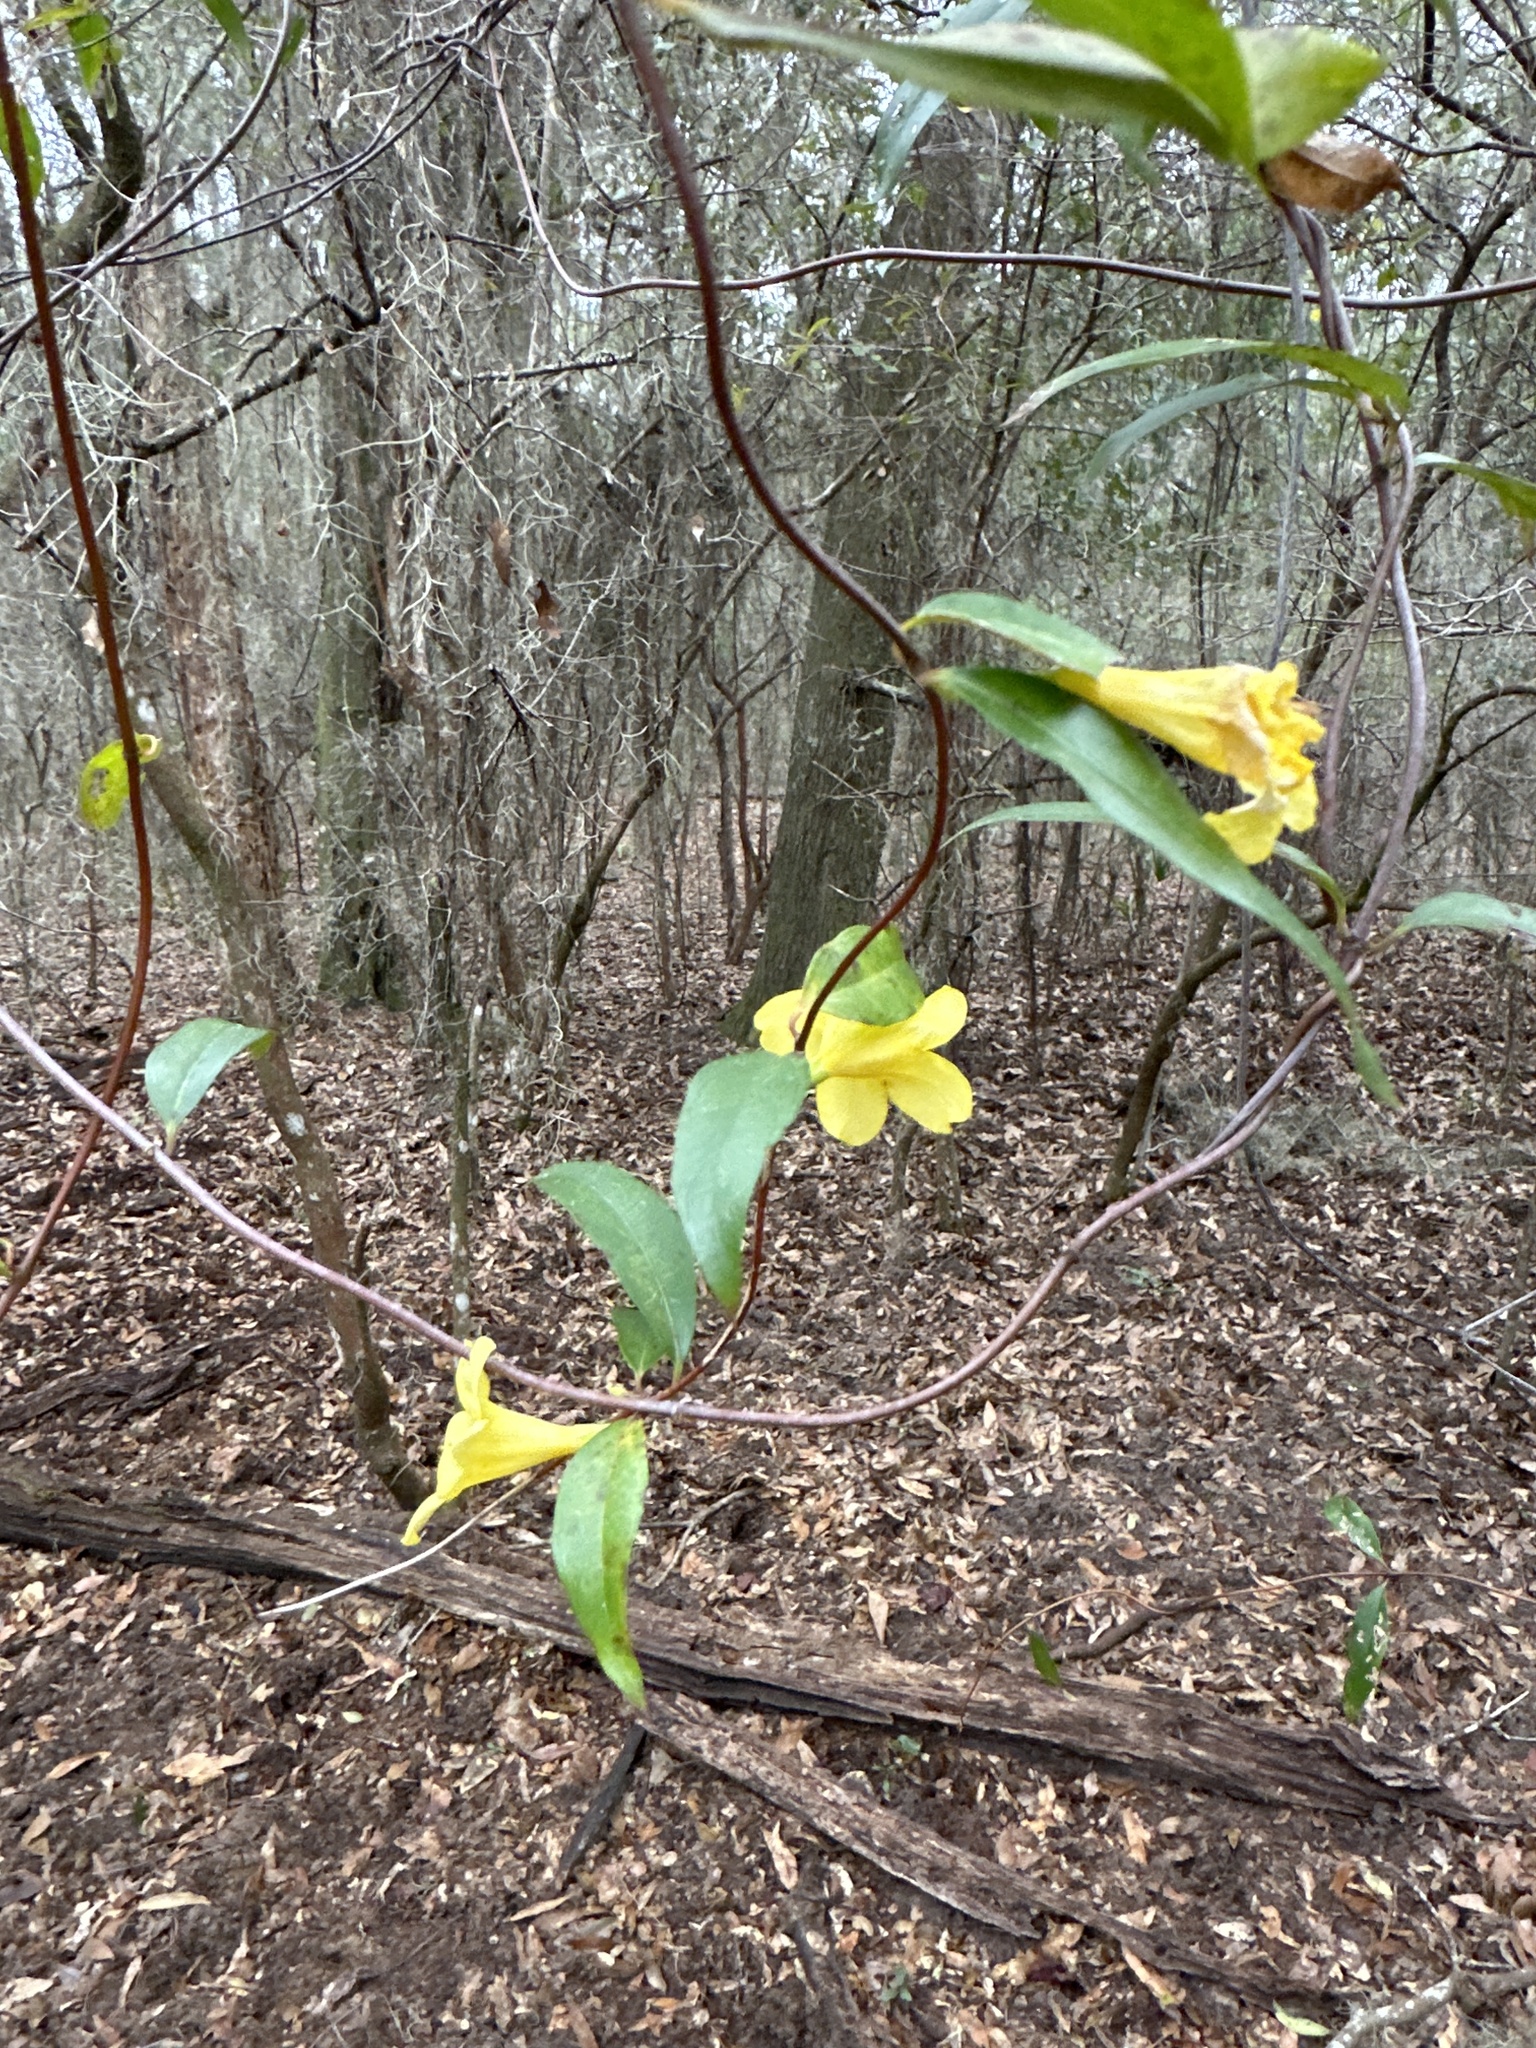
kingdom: Plantae
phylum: Tracheophyta
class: Magnoliopsida
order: Gentianales
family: Gelsemiaceae
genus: Gelsemium
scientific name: Gelsemium sempervirens
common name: Carolina-jasmine
